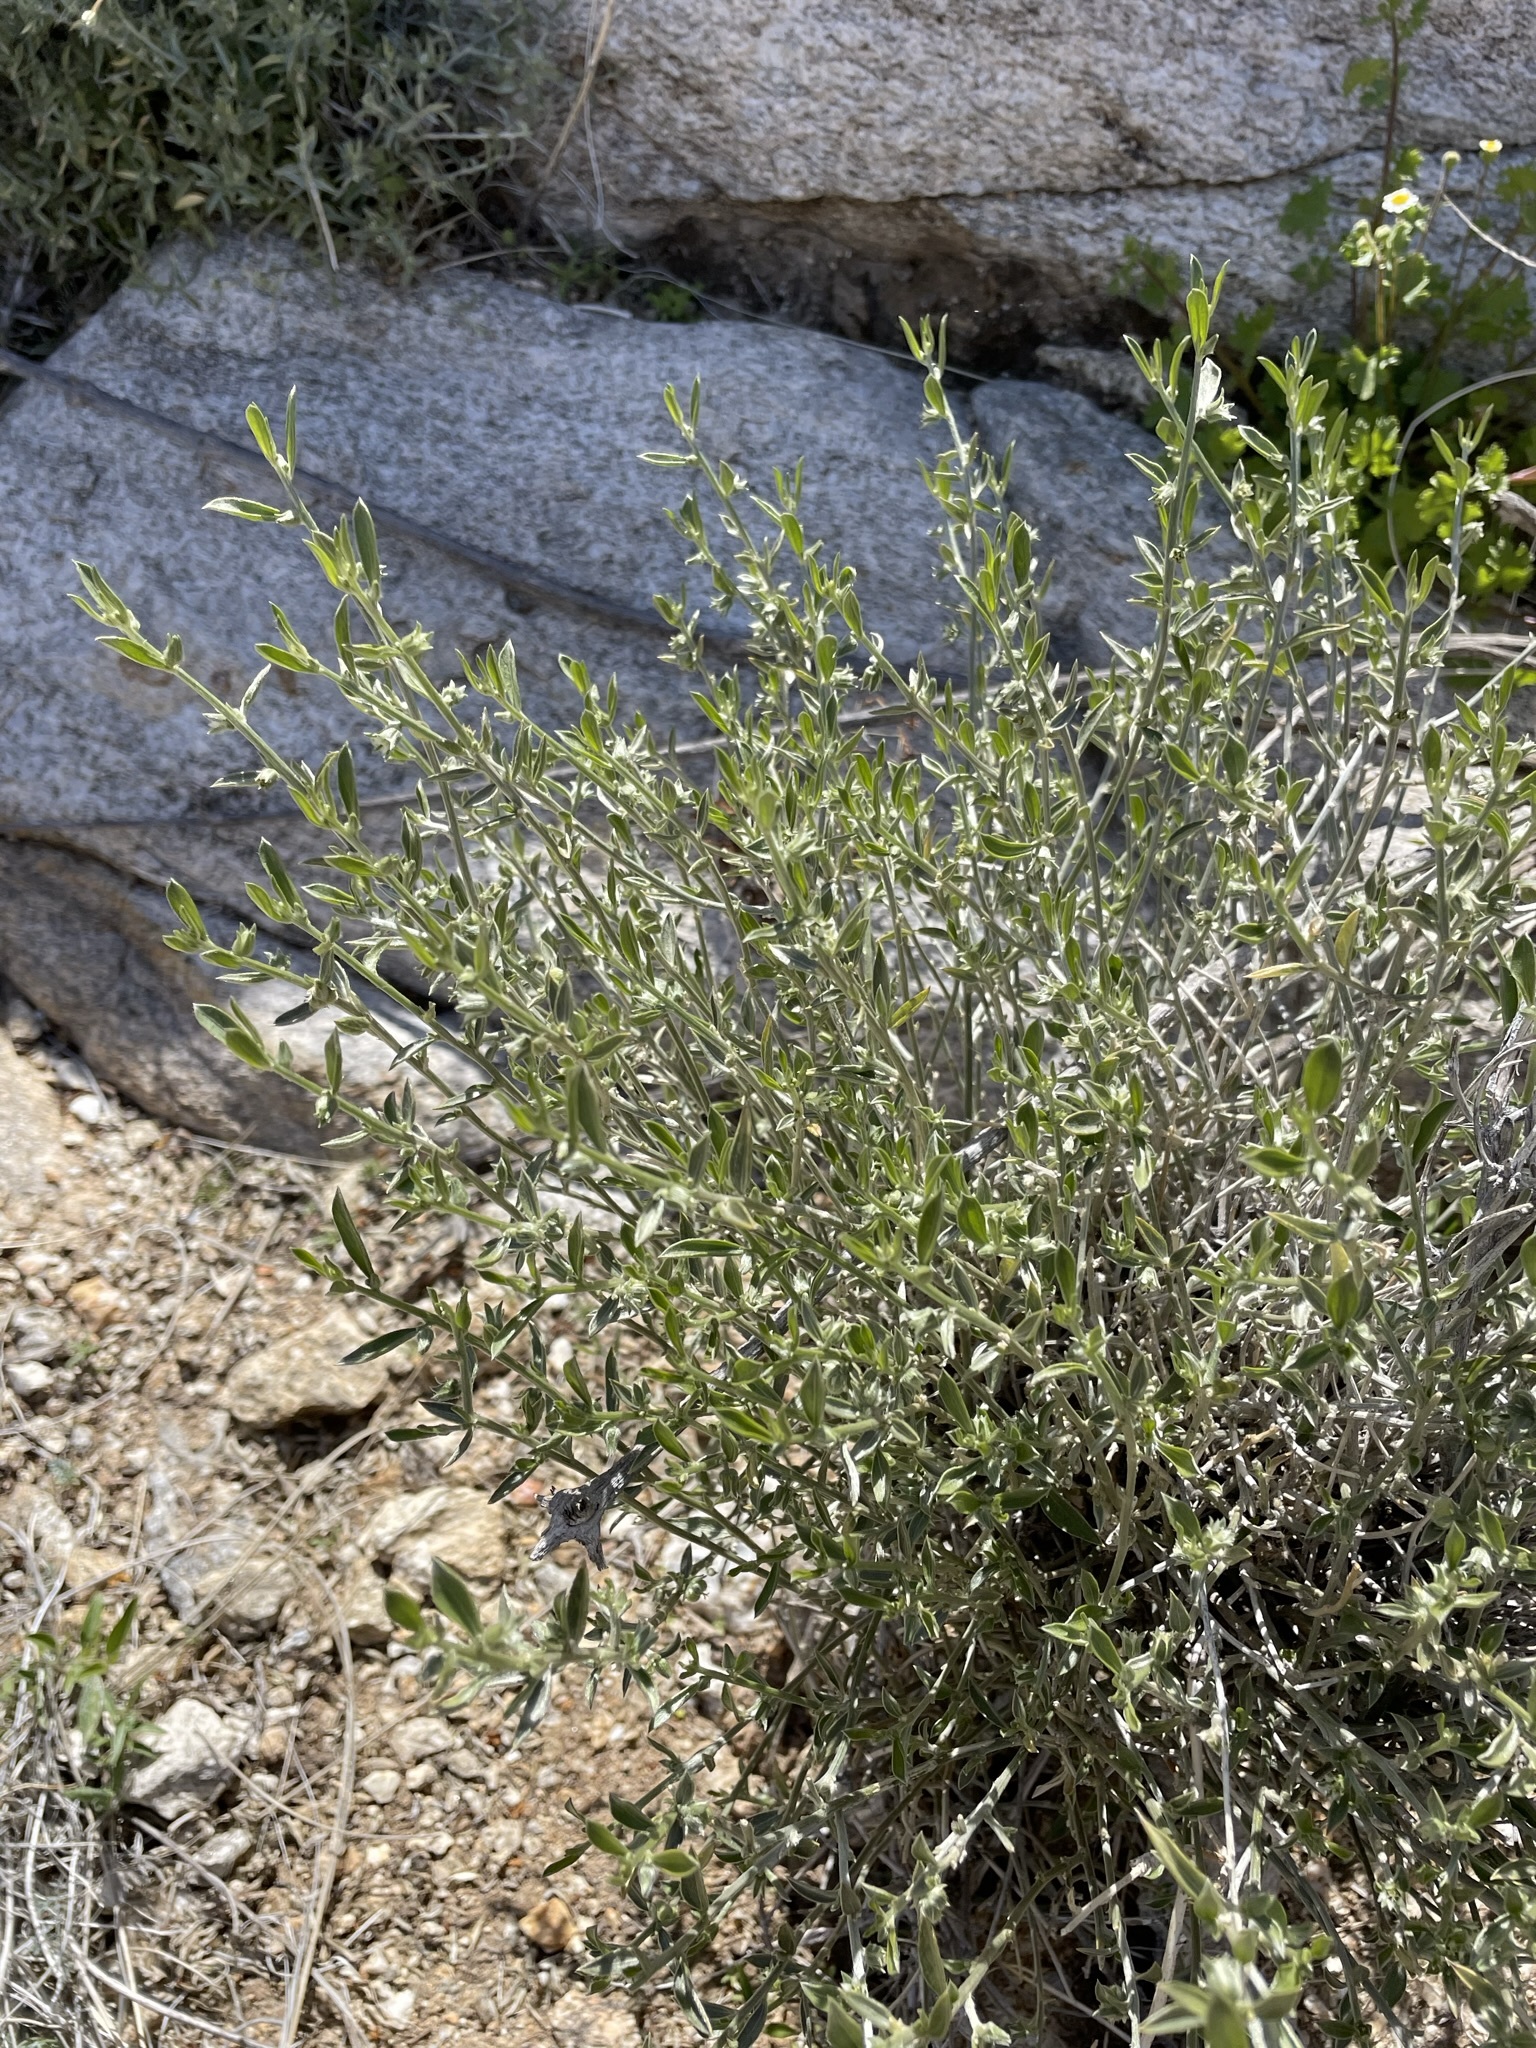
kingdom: Plantae
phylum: Tracheophyta
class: Magnoliopsida
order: Malpighiales
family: Euphorbiaceae
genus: Ditaxis
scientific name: Ditaxis lanceolata
